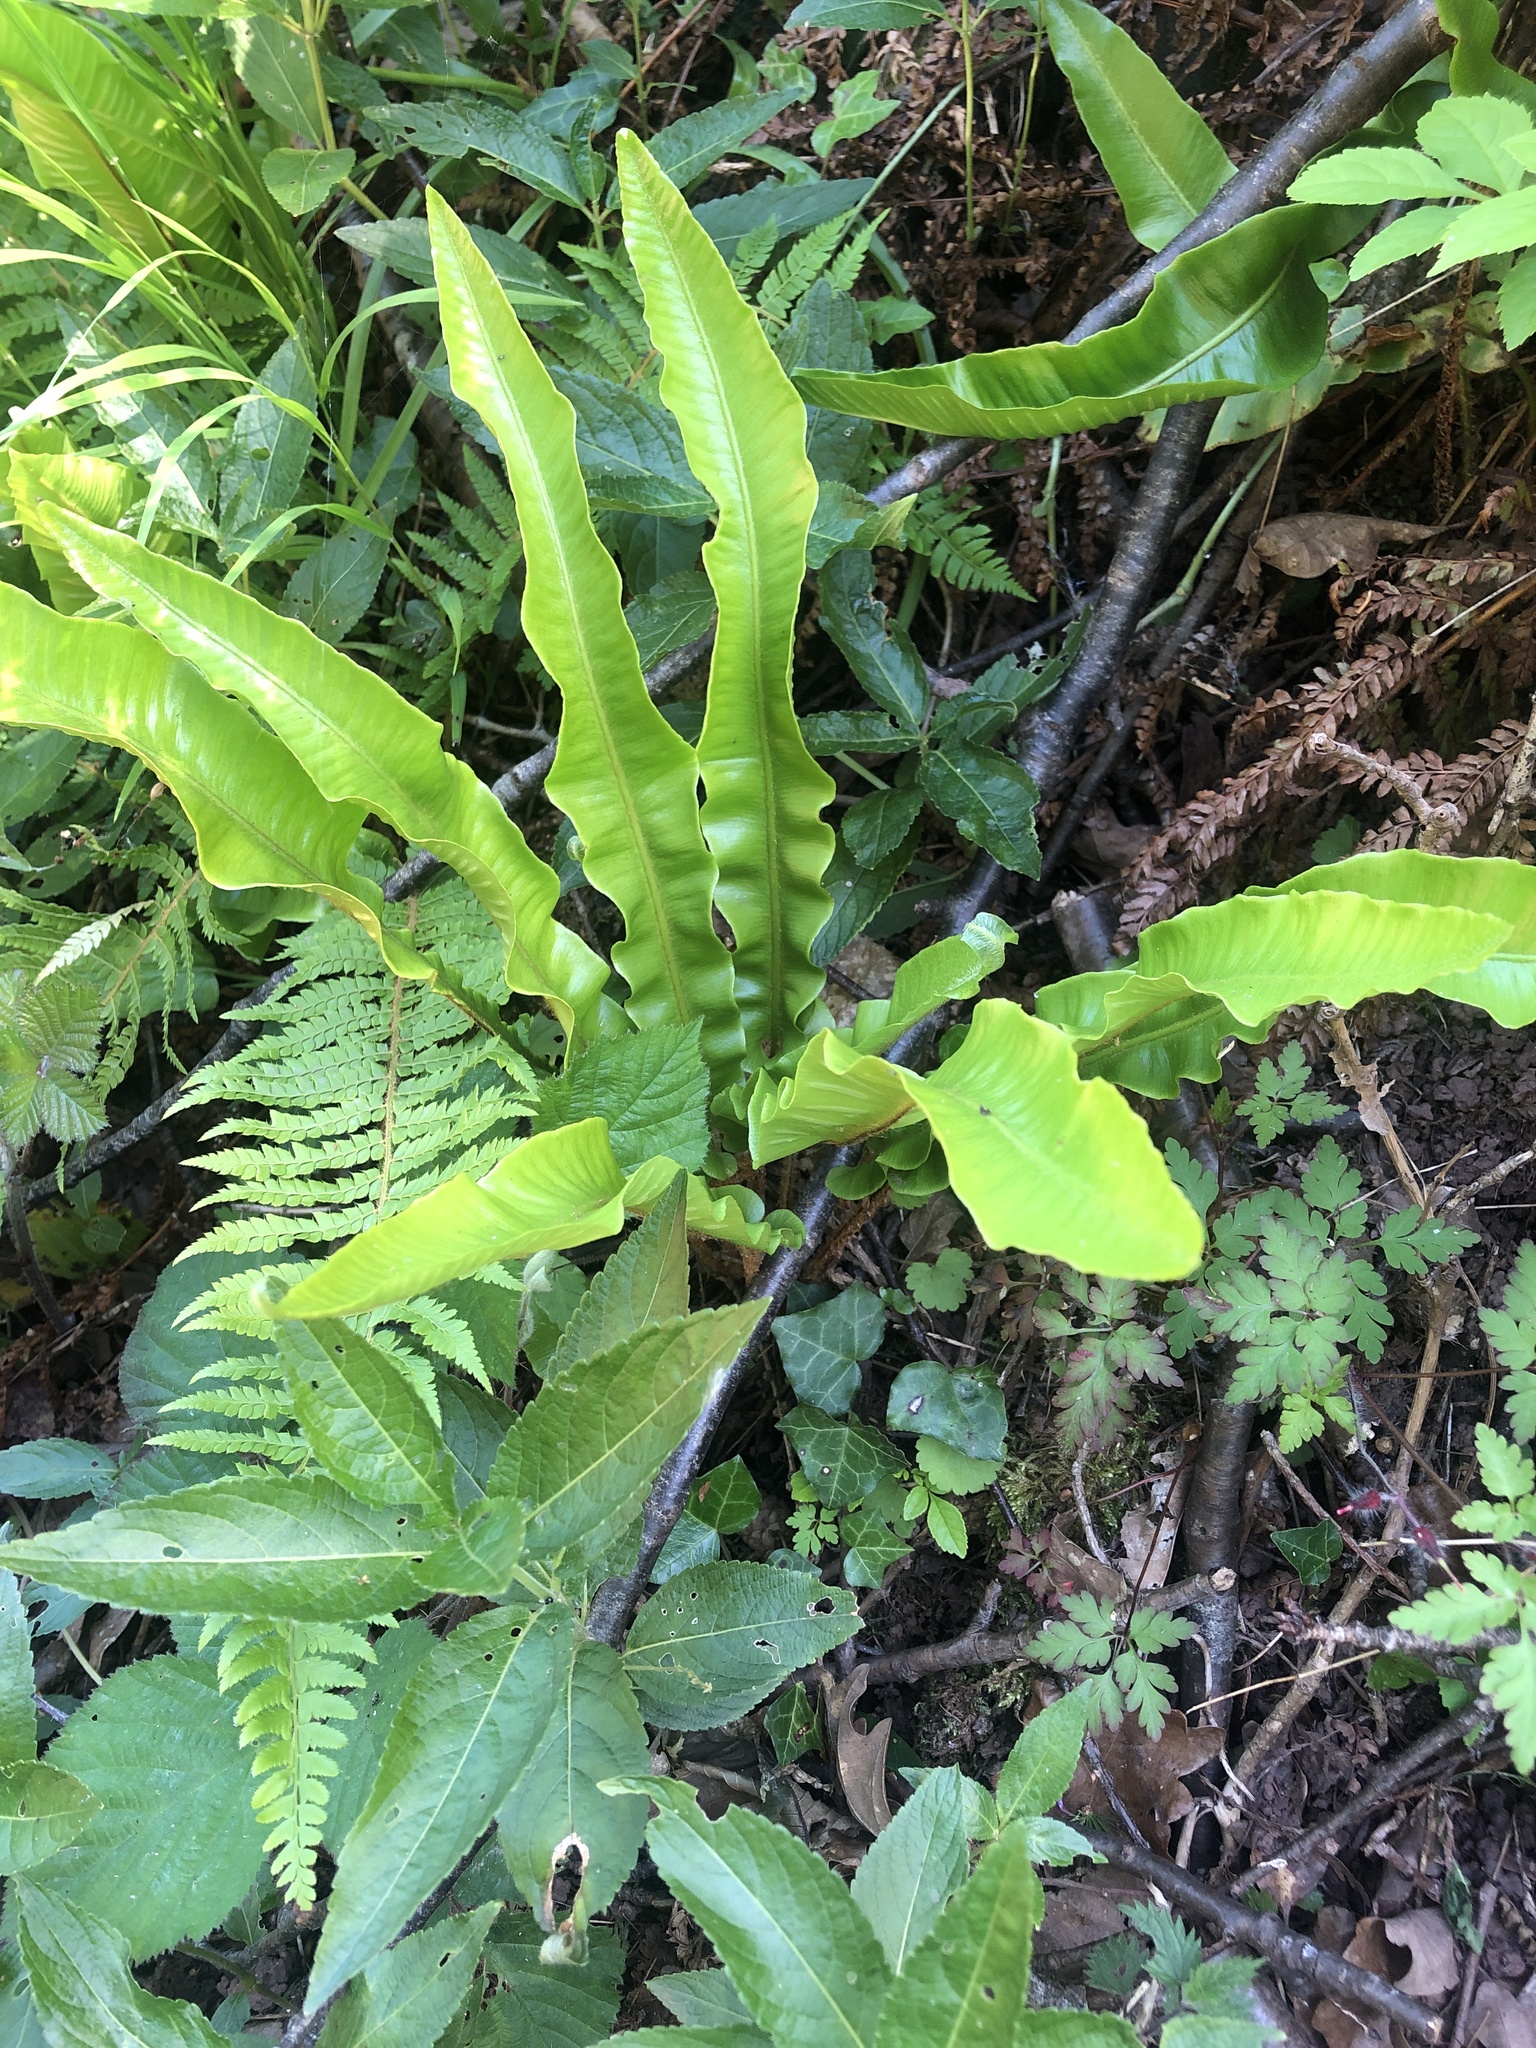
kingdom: Plantae
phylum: Tracheophyta
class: Polypodiopsida
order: Polypodiales
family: Aspleniaceae
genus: Asplenium
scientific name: Asplenium scolopendrium
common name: Hart's-tongue fern
